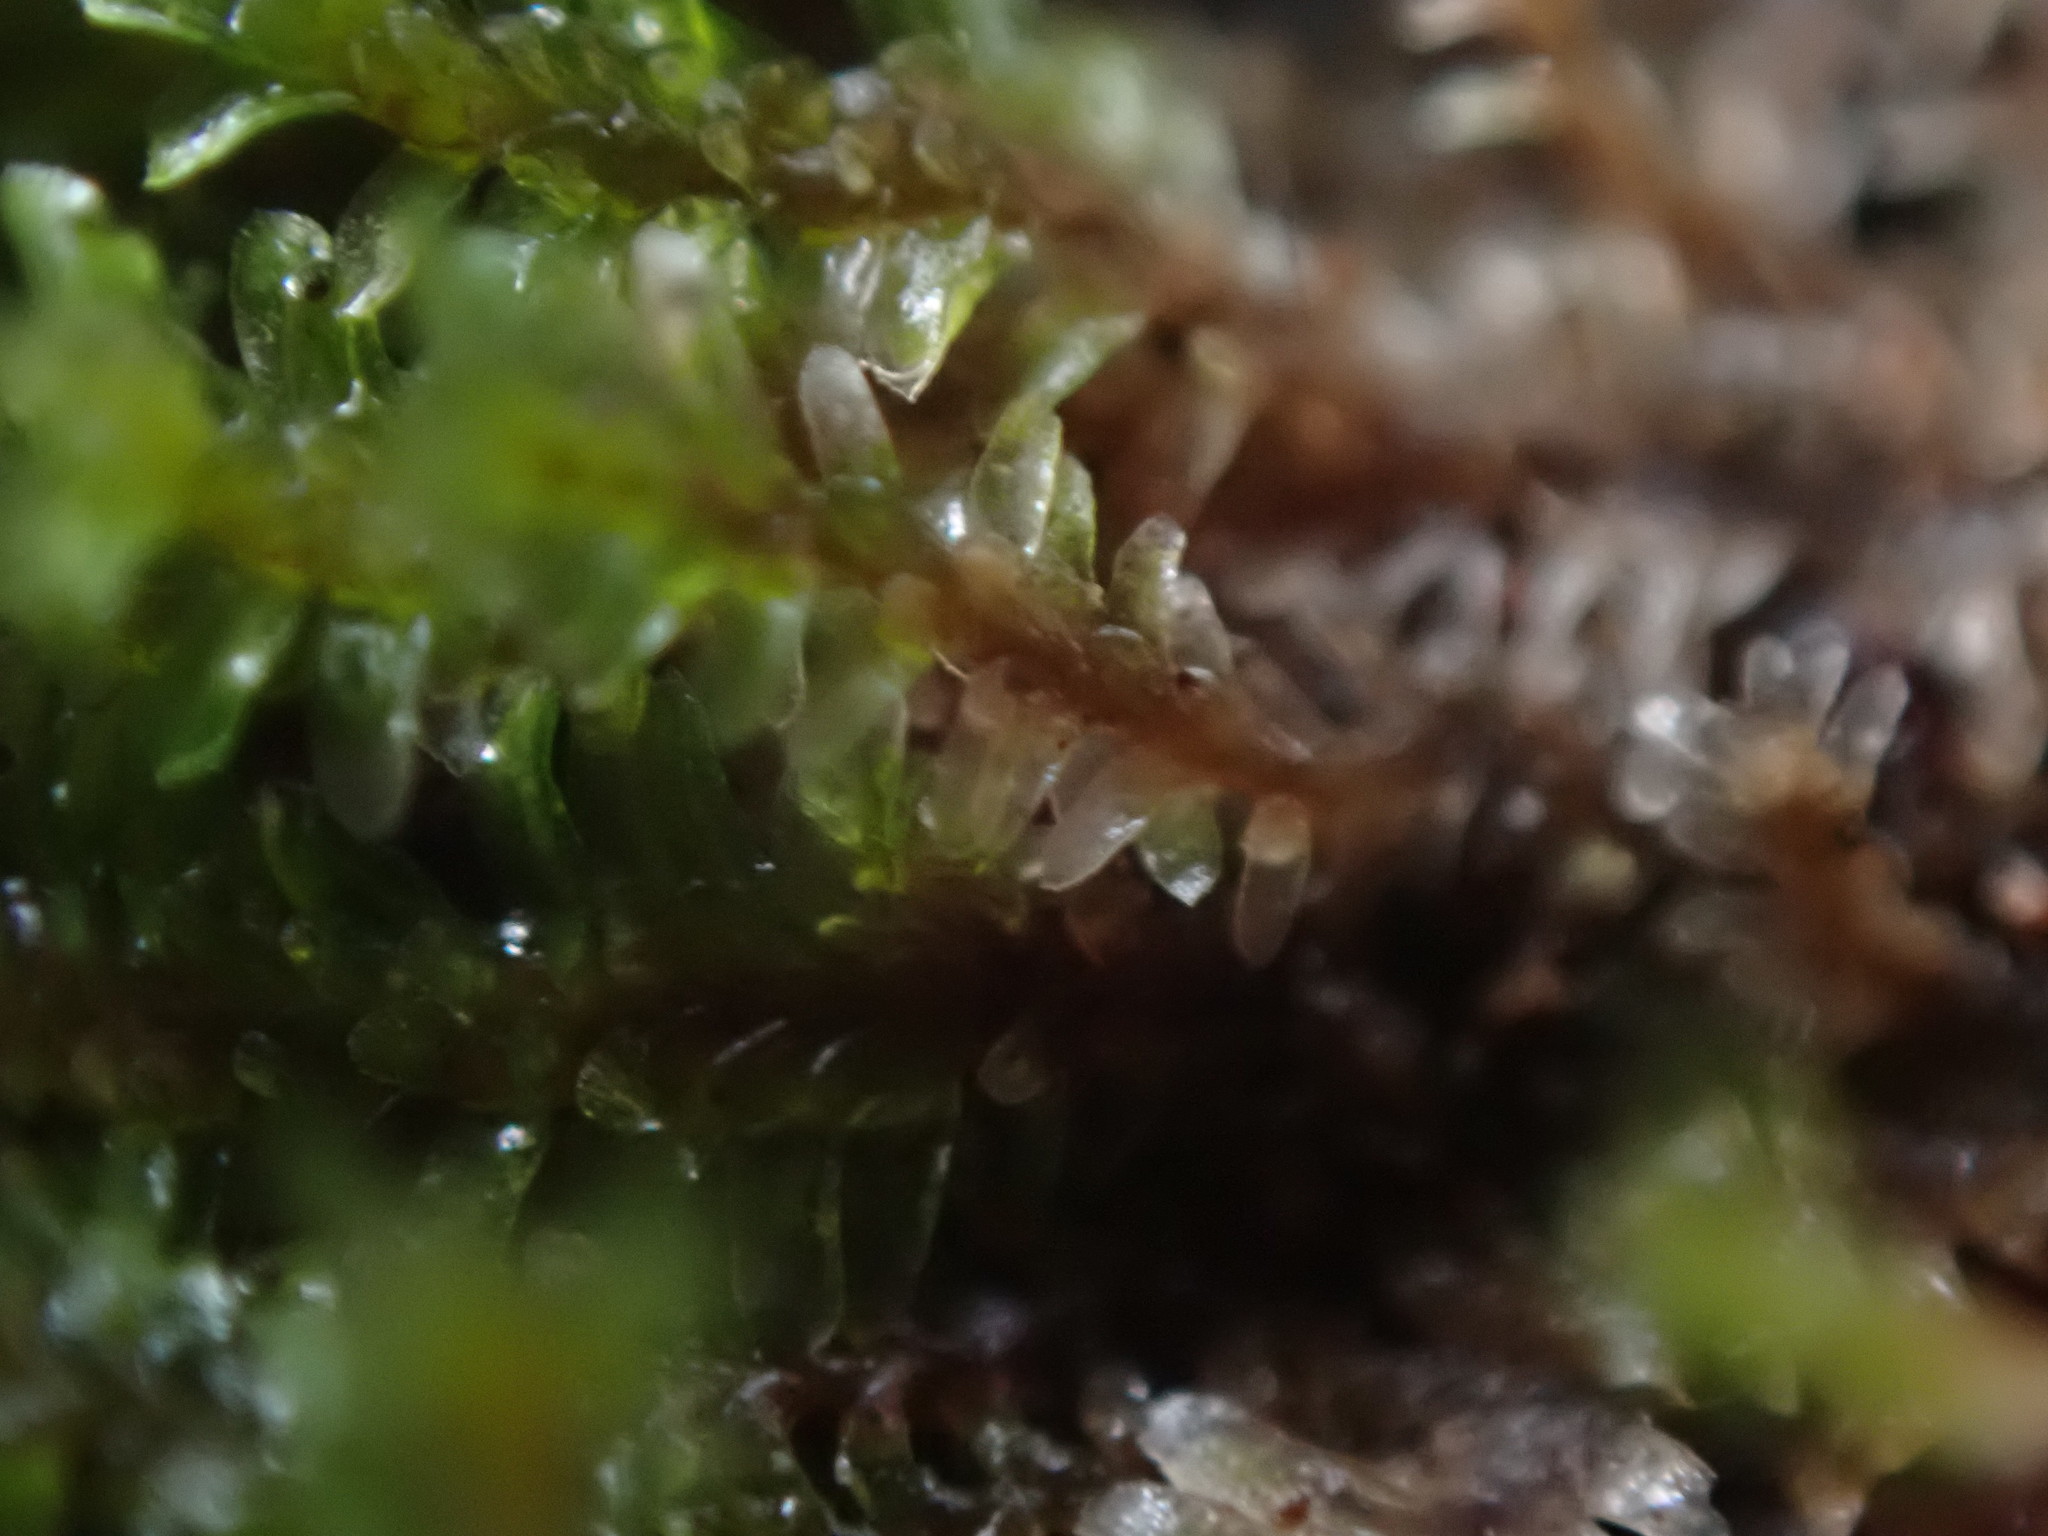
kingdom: Plantae
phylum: Marchantiophyta
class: Jungermanniopsida
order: Jungermanniales
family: Scapaniaceae
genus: Diplophyllum
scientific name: Diplophyllum albicans
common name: White earwort
